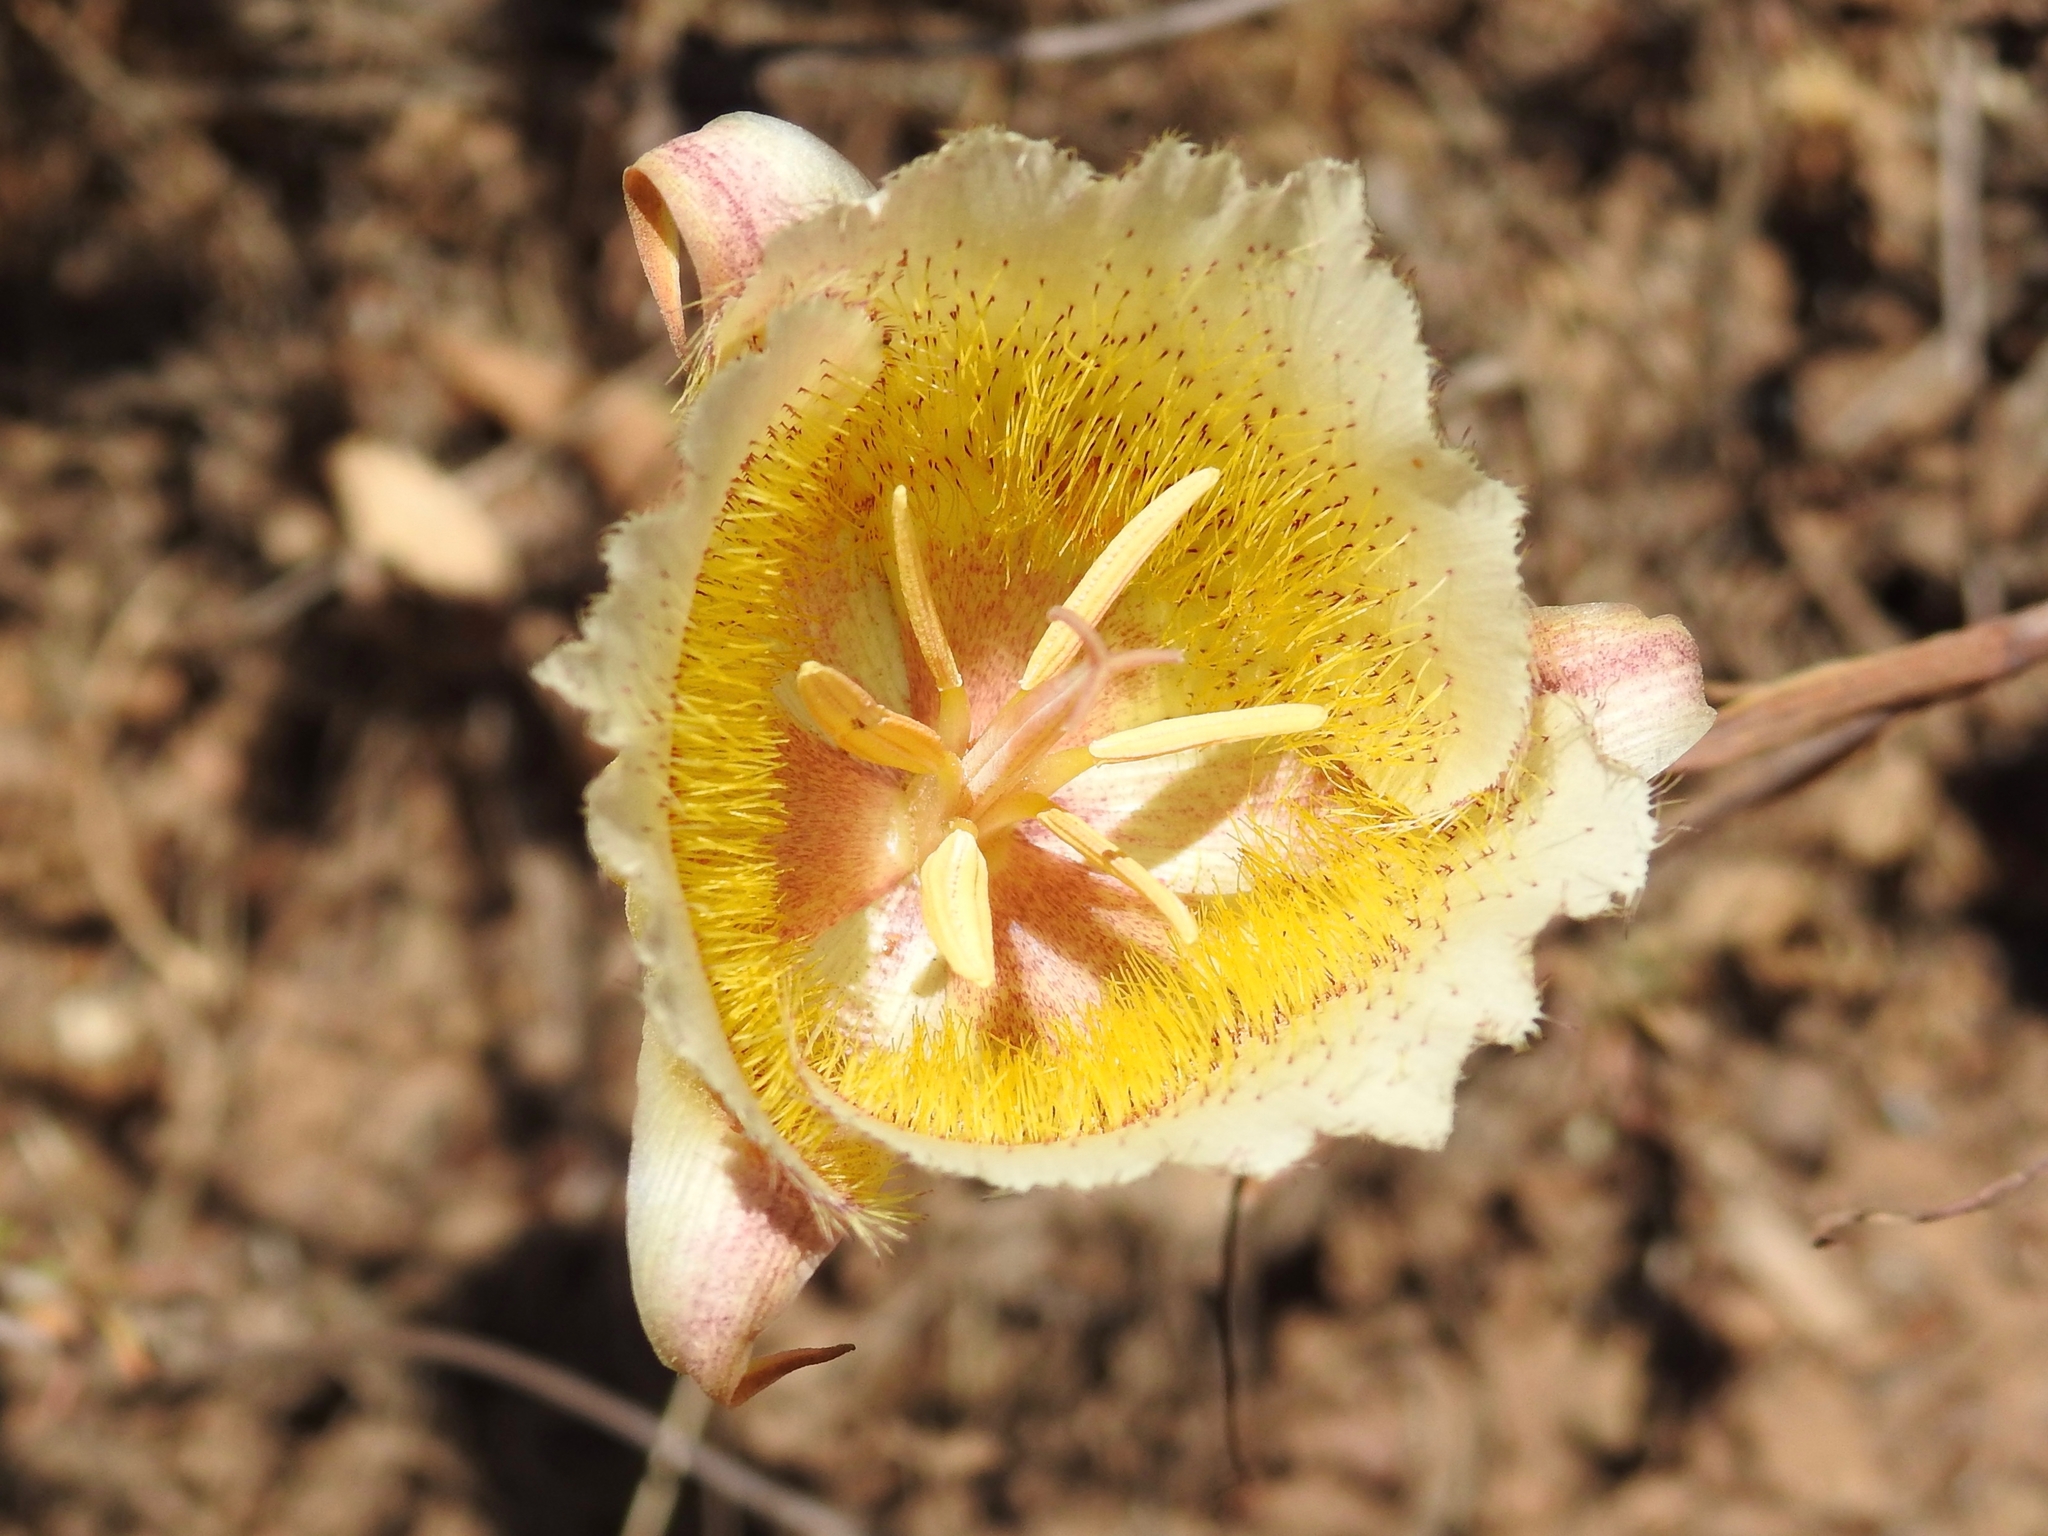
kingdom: Plantae
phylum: Tracheophyta
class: Liliopsida
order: Liliales
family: Liliaceae
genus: Calochortus
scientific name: Calochortus weedii
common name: Weed's mariposa-lily
